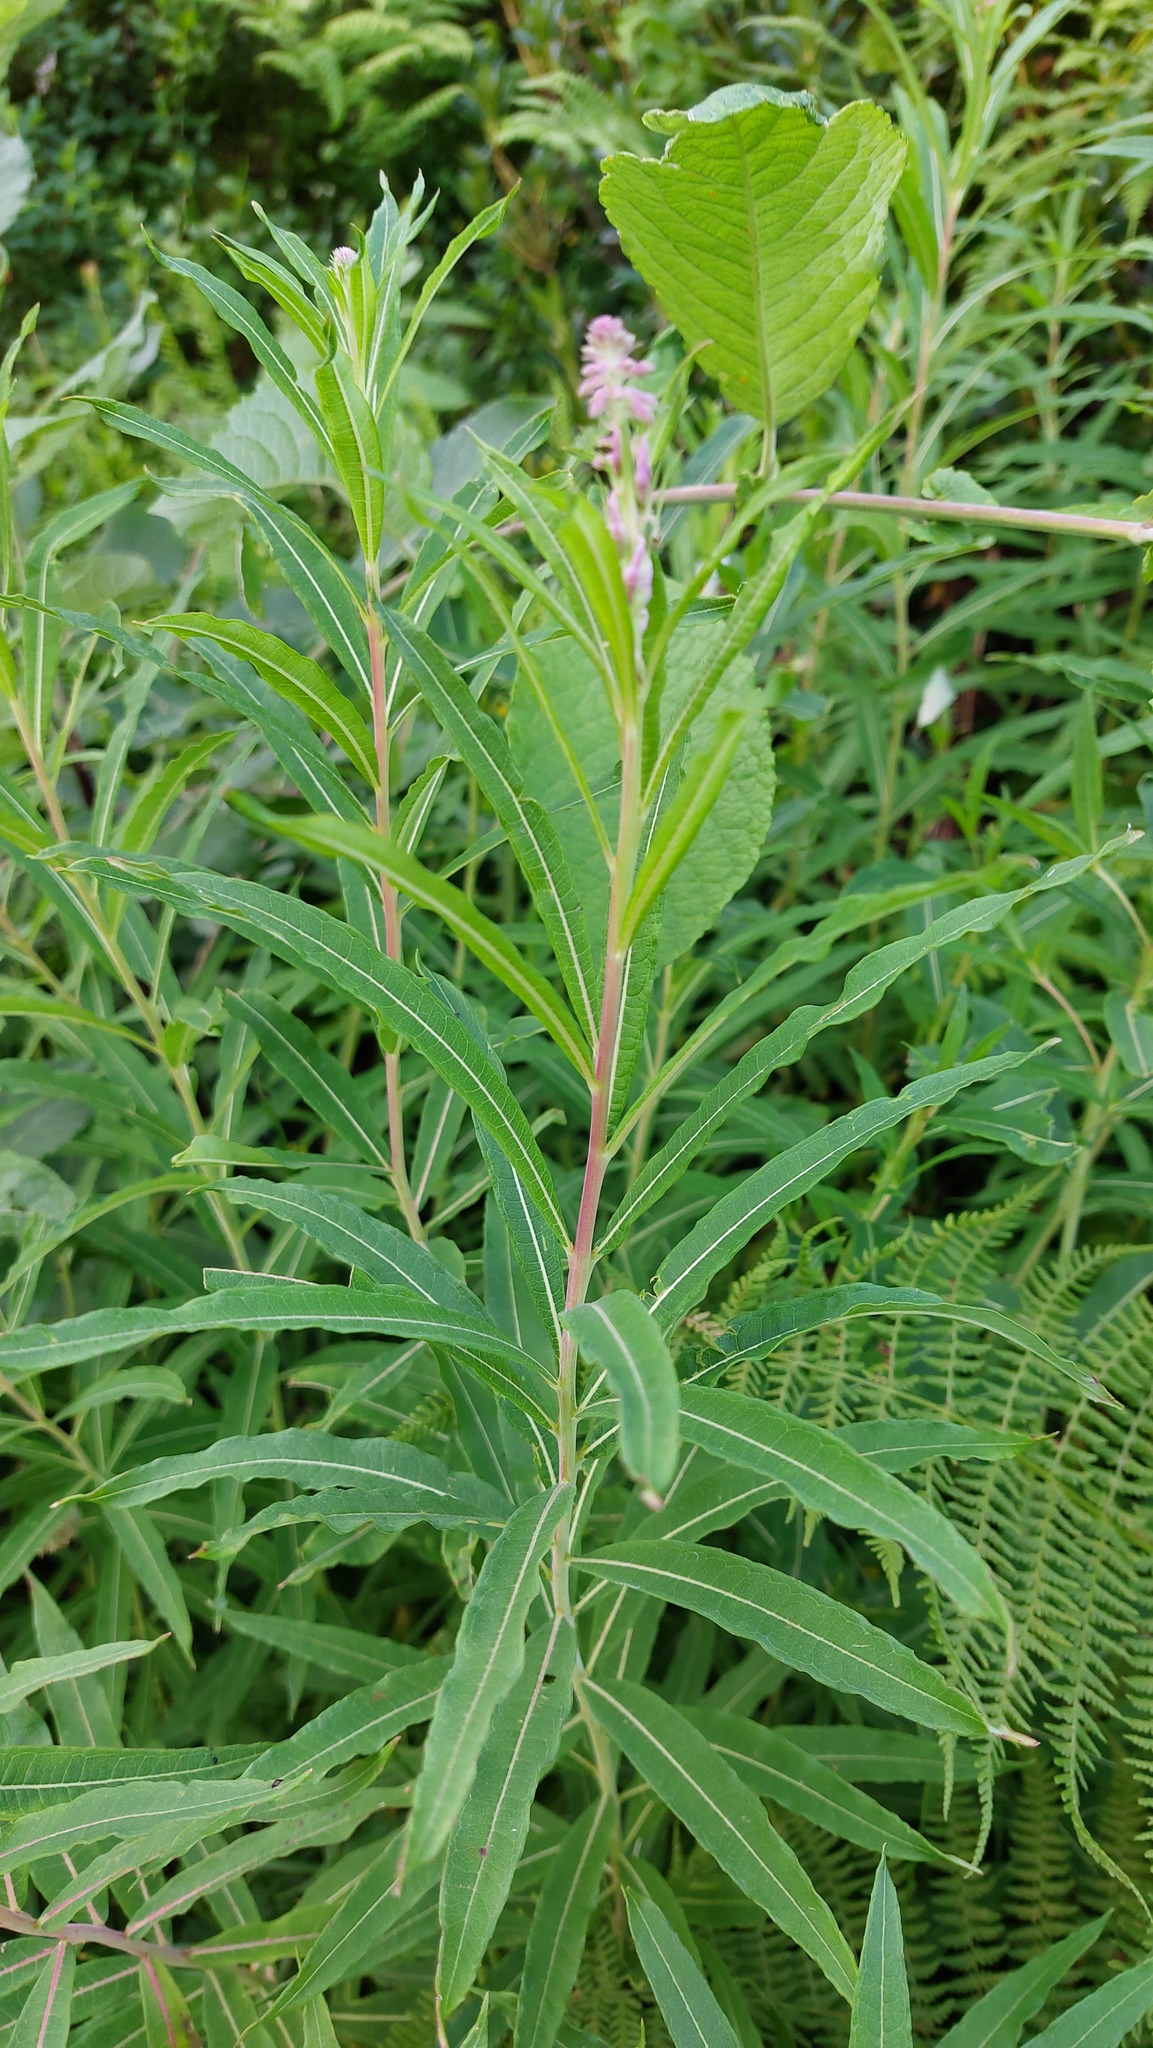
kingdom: Plantae
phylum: Tracheophyta
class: Magnoliopsida
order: Myrtales
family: Onagraceae
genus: Chamaenerion
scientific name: Chamaenerion angustifolium
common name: Fireweed
